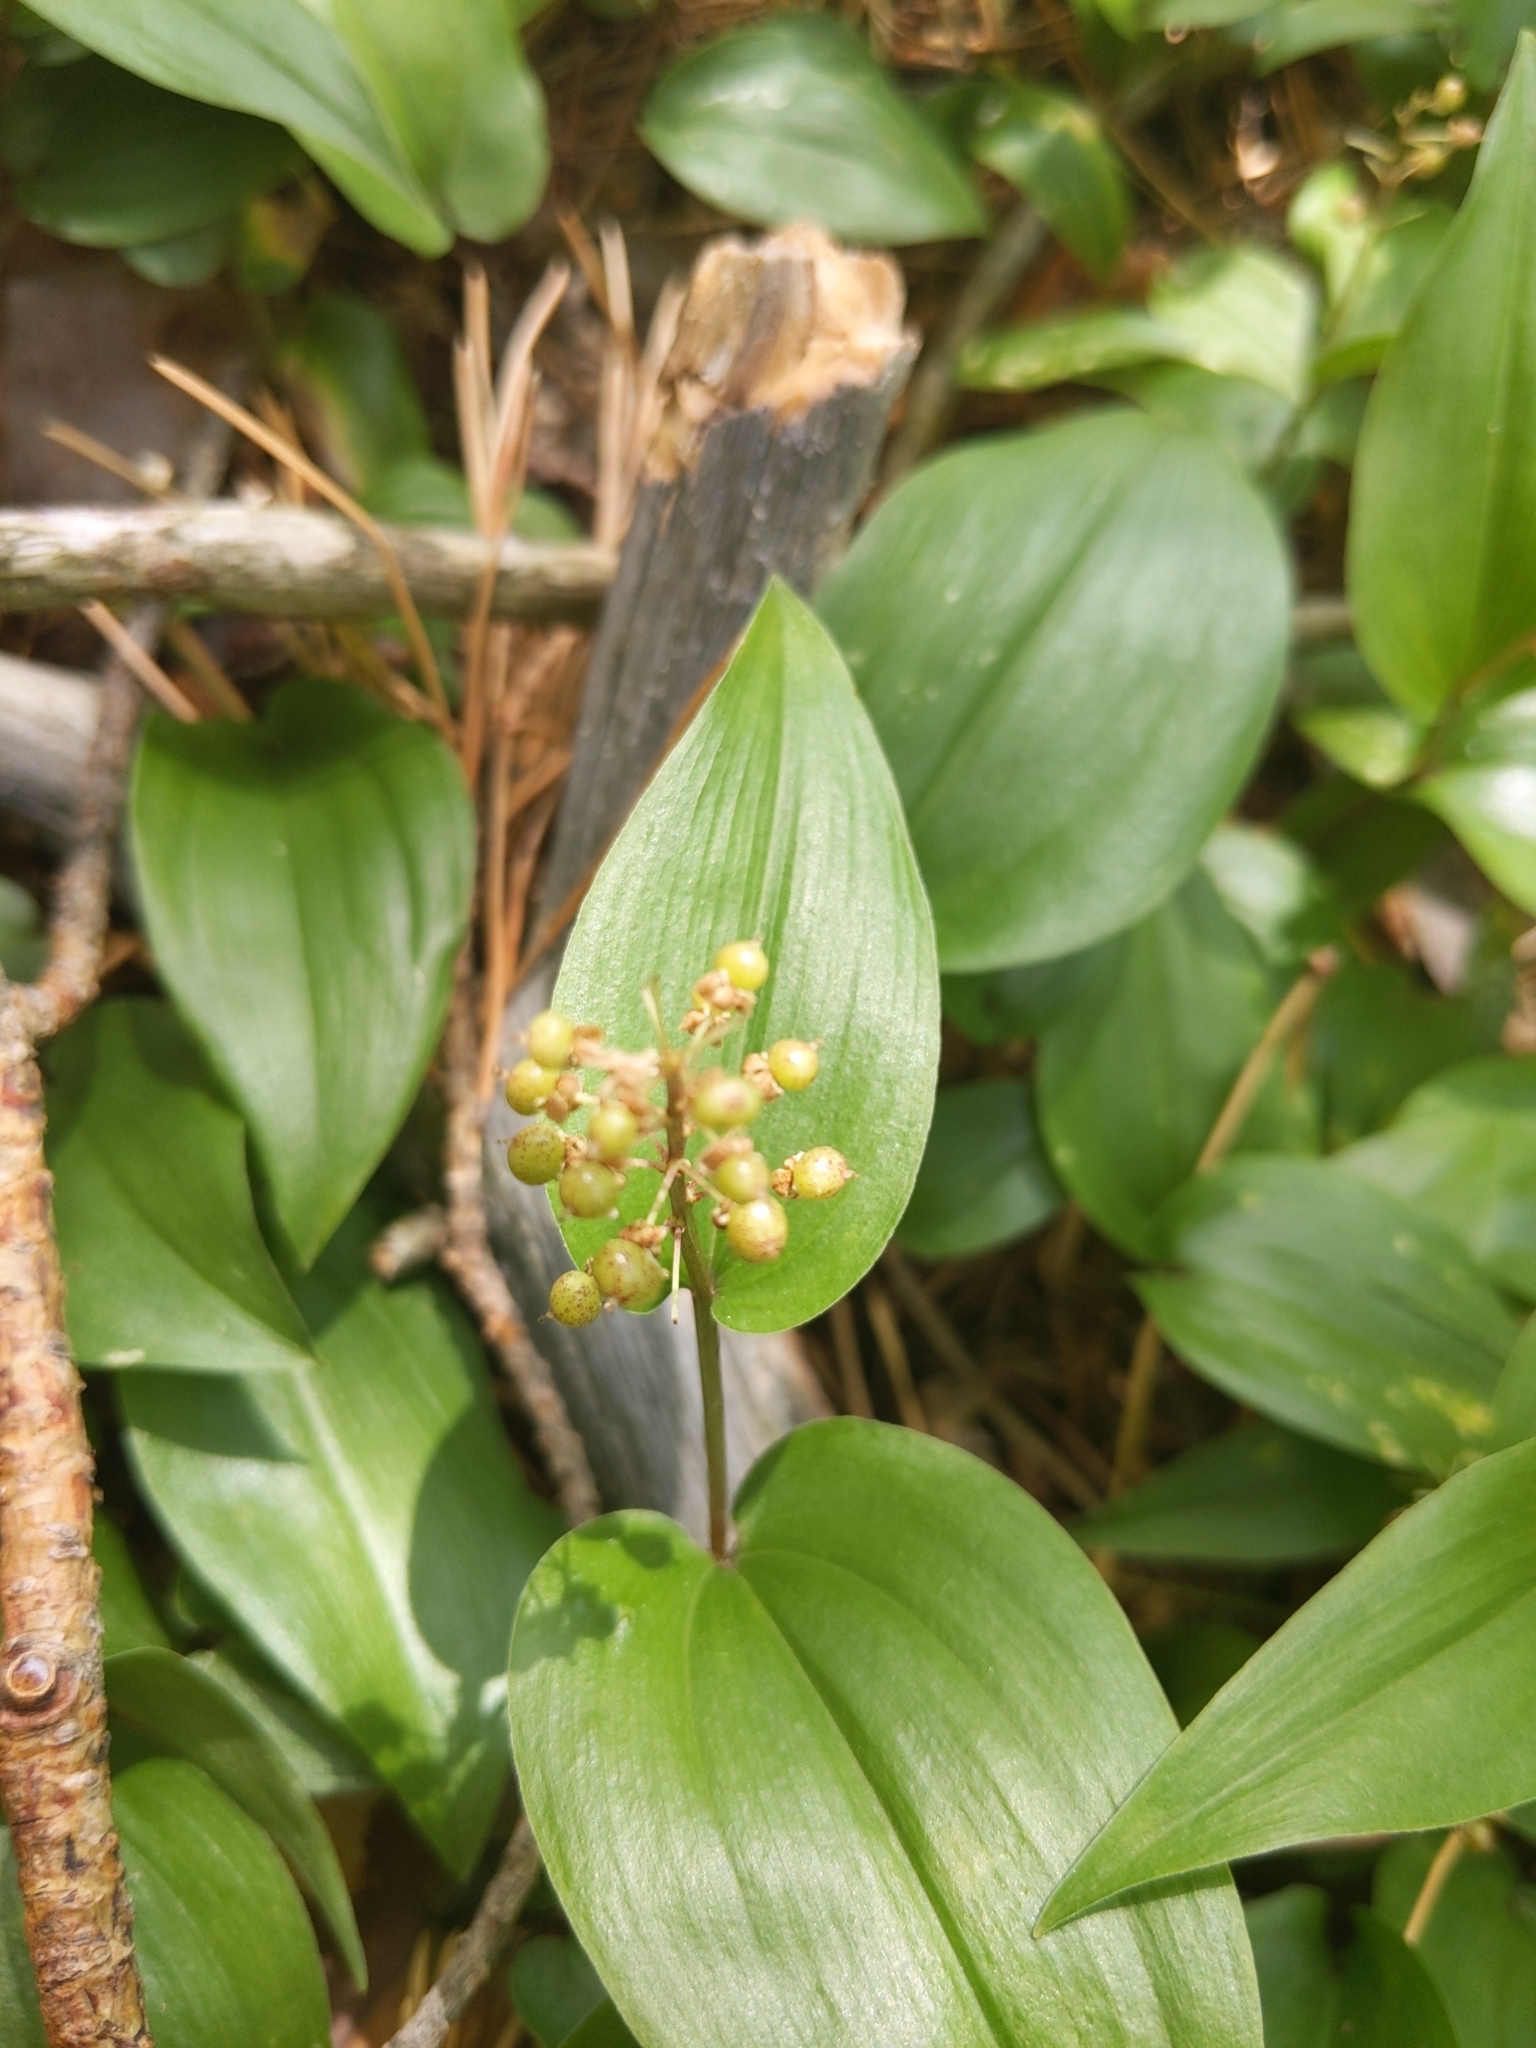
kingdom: Plantae
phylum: Tracheophyta
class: Liliopsida
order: Asparagales
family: Asparagaceae
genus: Maianthemum
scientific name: Maianthemum canadense
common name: False lily-of-the-valley
